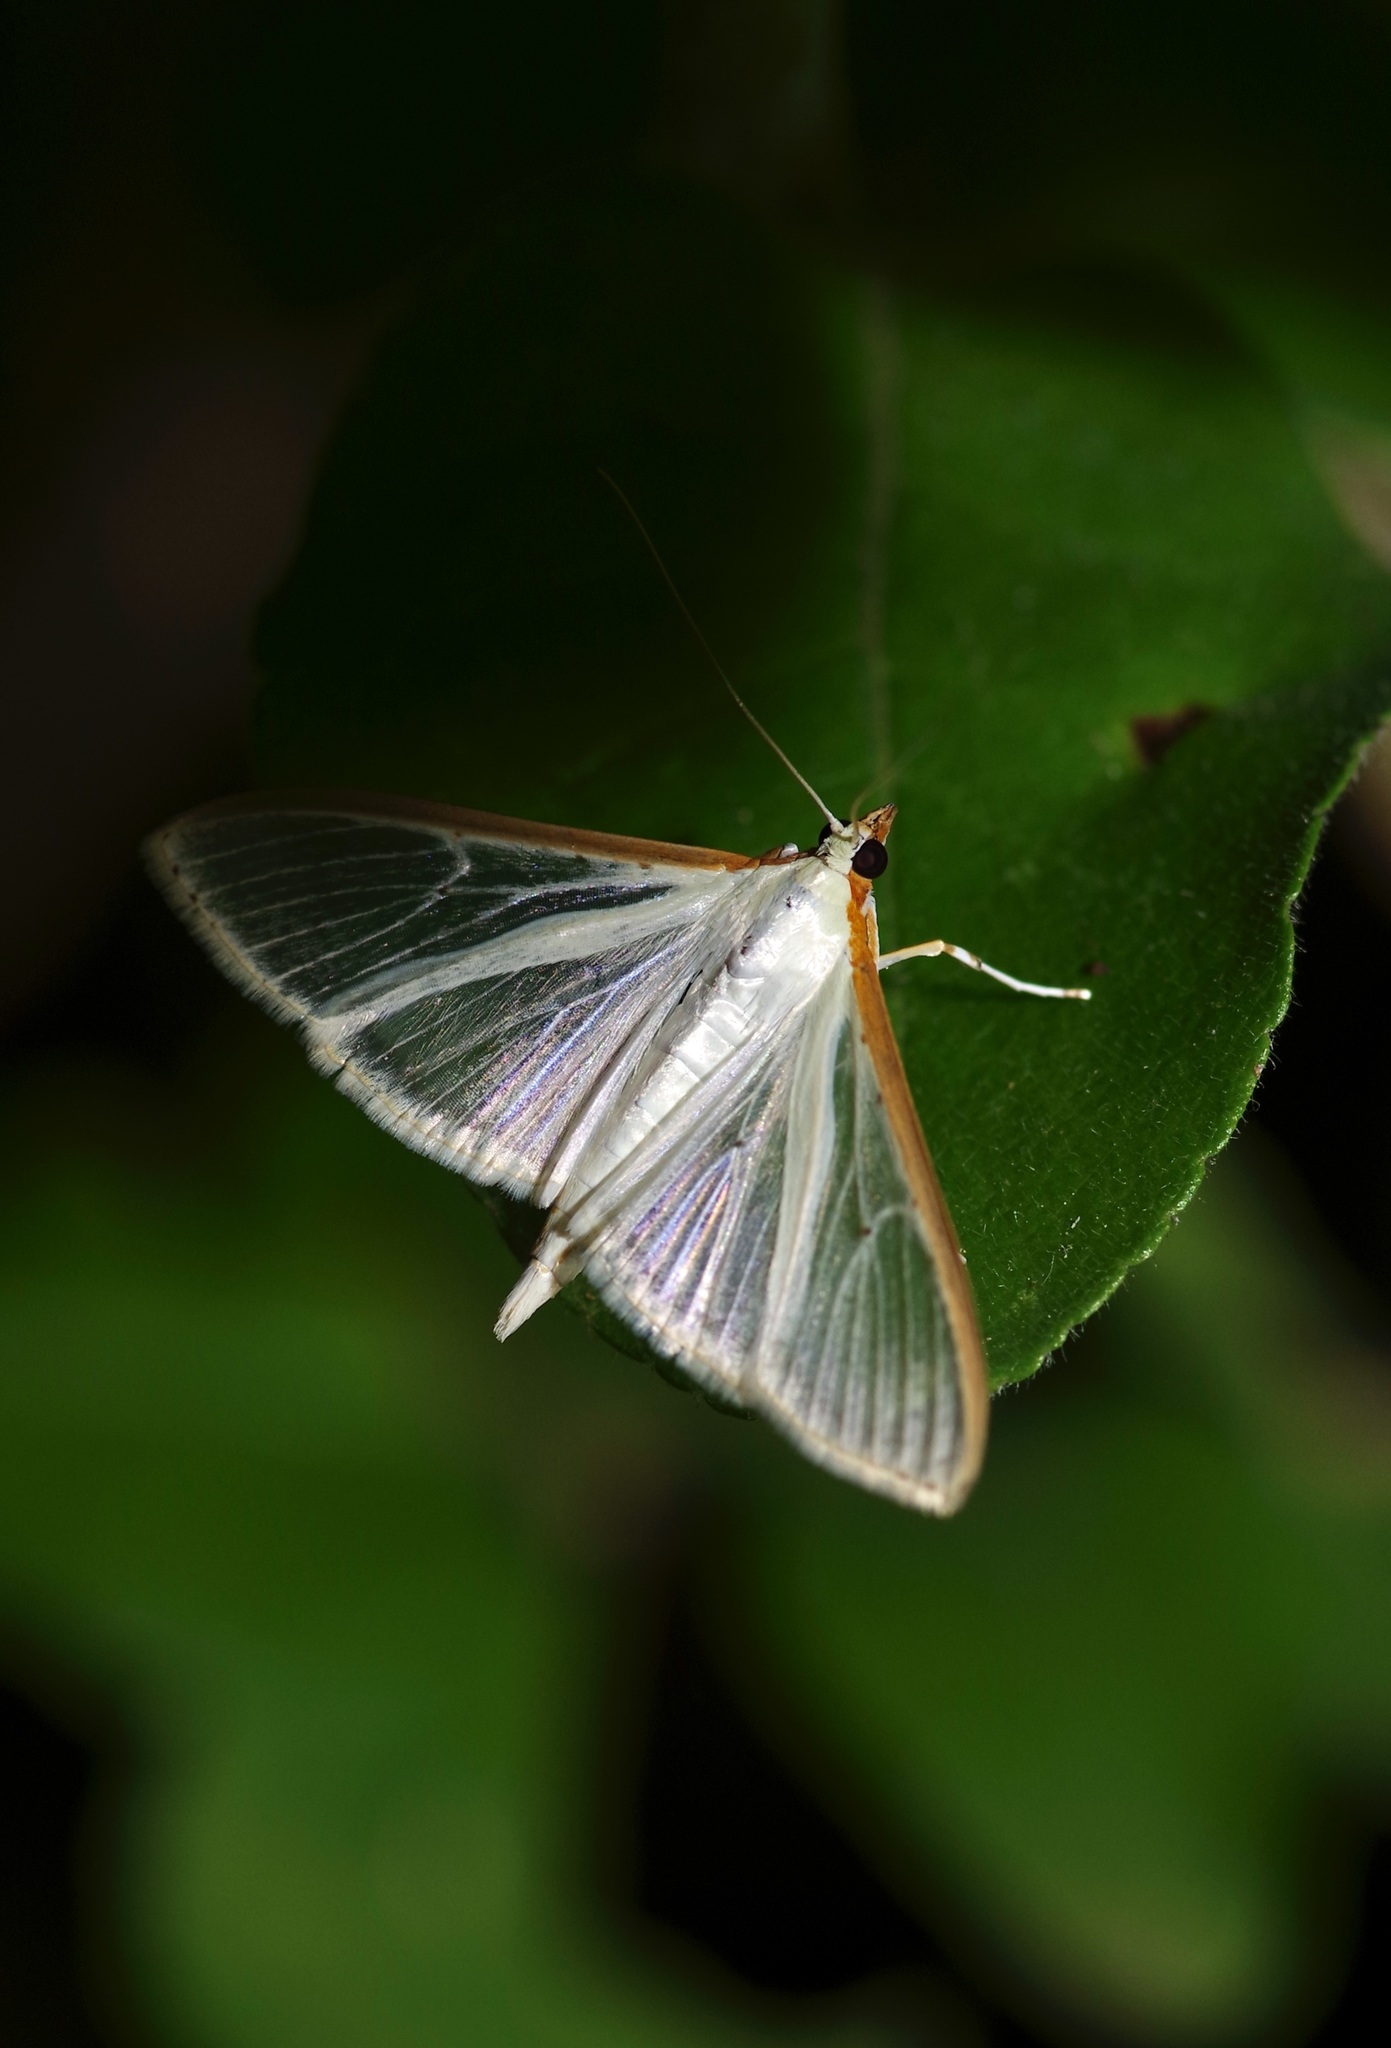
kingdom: Animalia
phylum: Arthropoda
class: Insecta
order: Lepidoptera
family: Crambidae
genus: Palpita
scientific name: Palpita quadristigmalis
